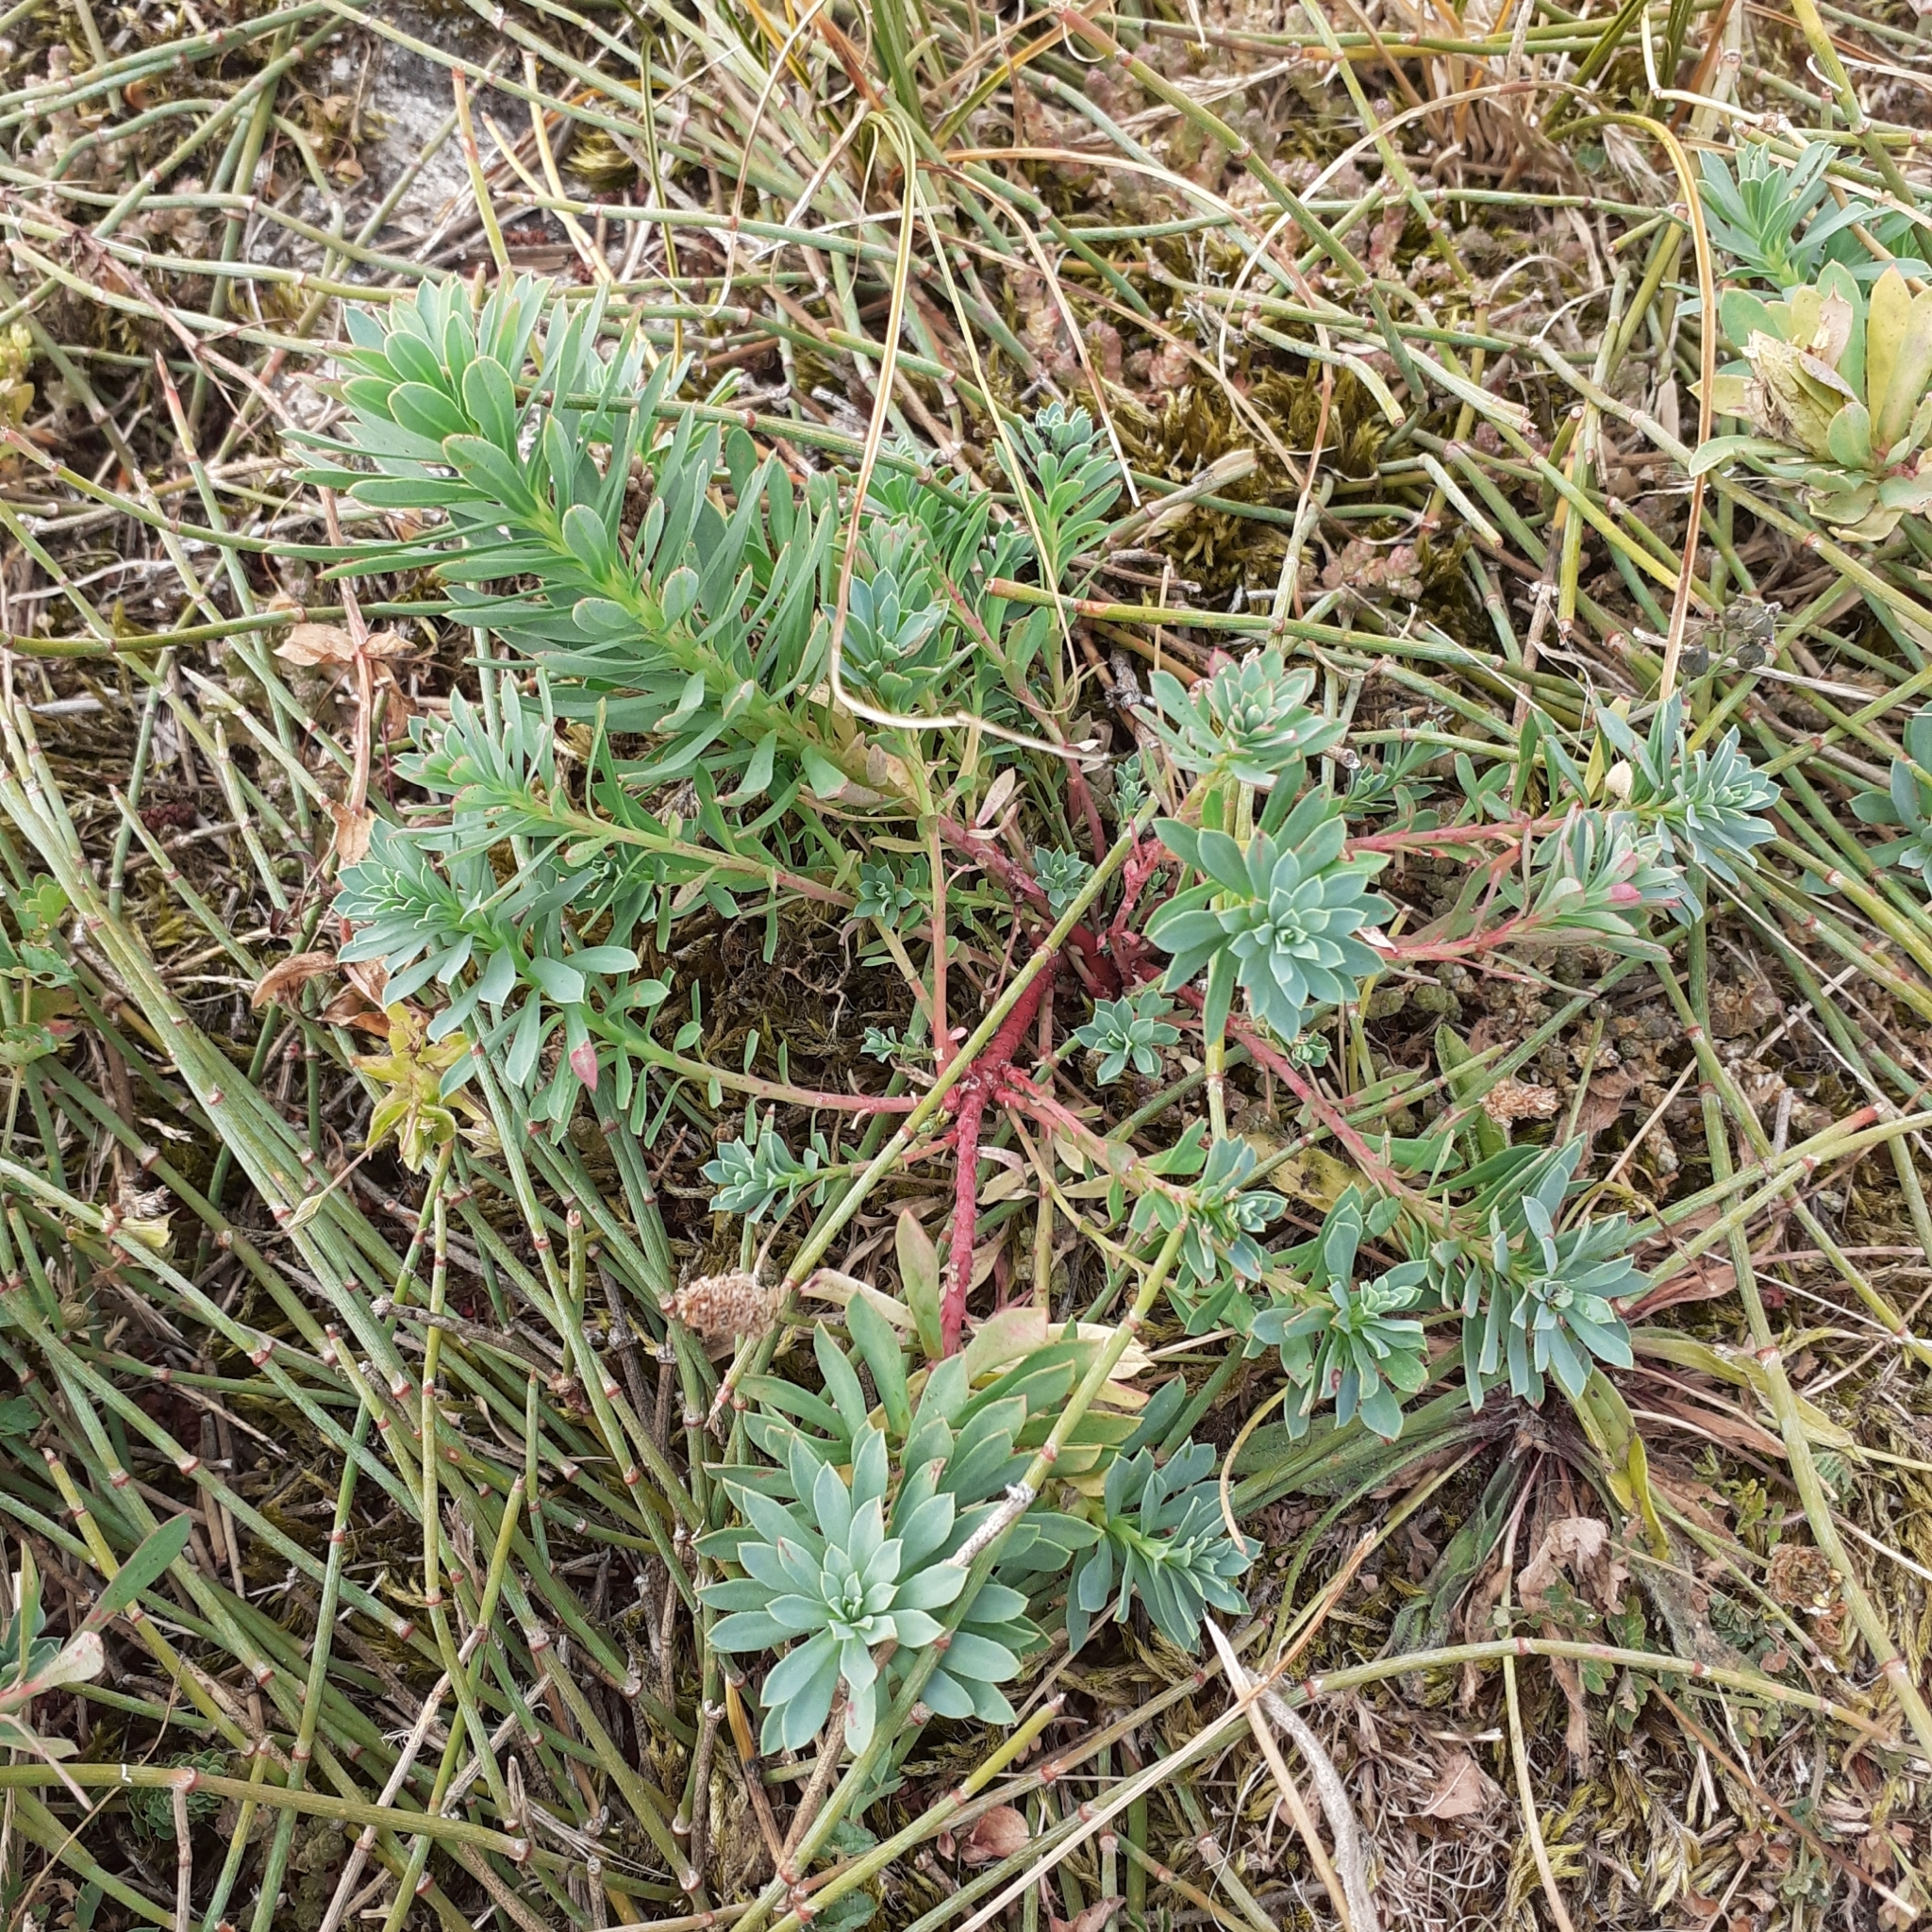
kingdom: Plantae
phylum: Tracheophyta
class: Magnoliopsida
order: Malpighiales
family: Euphorbiaceae
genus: Euphorbia
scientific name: Euphorbia paralias
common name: Sea spurge
